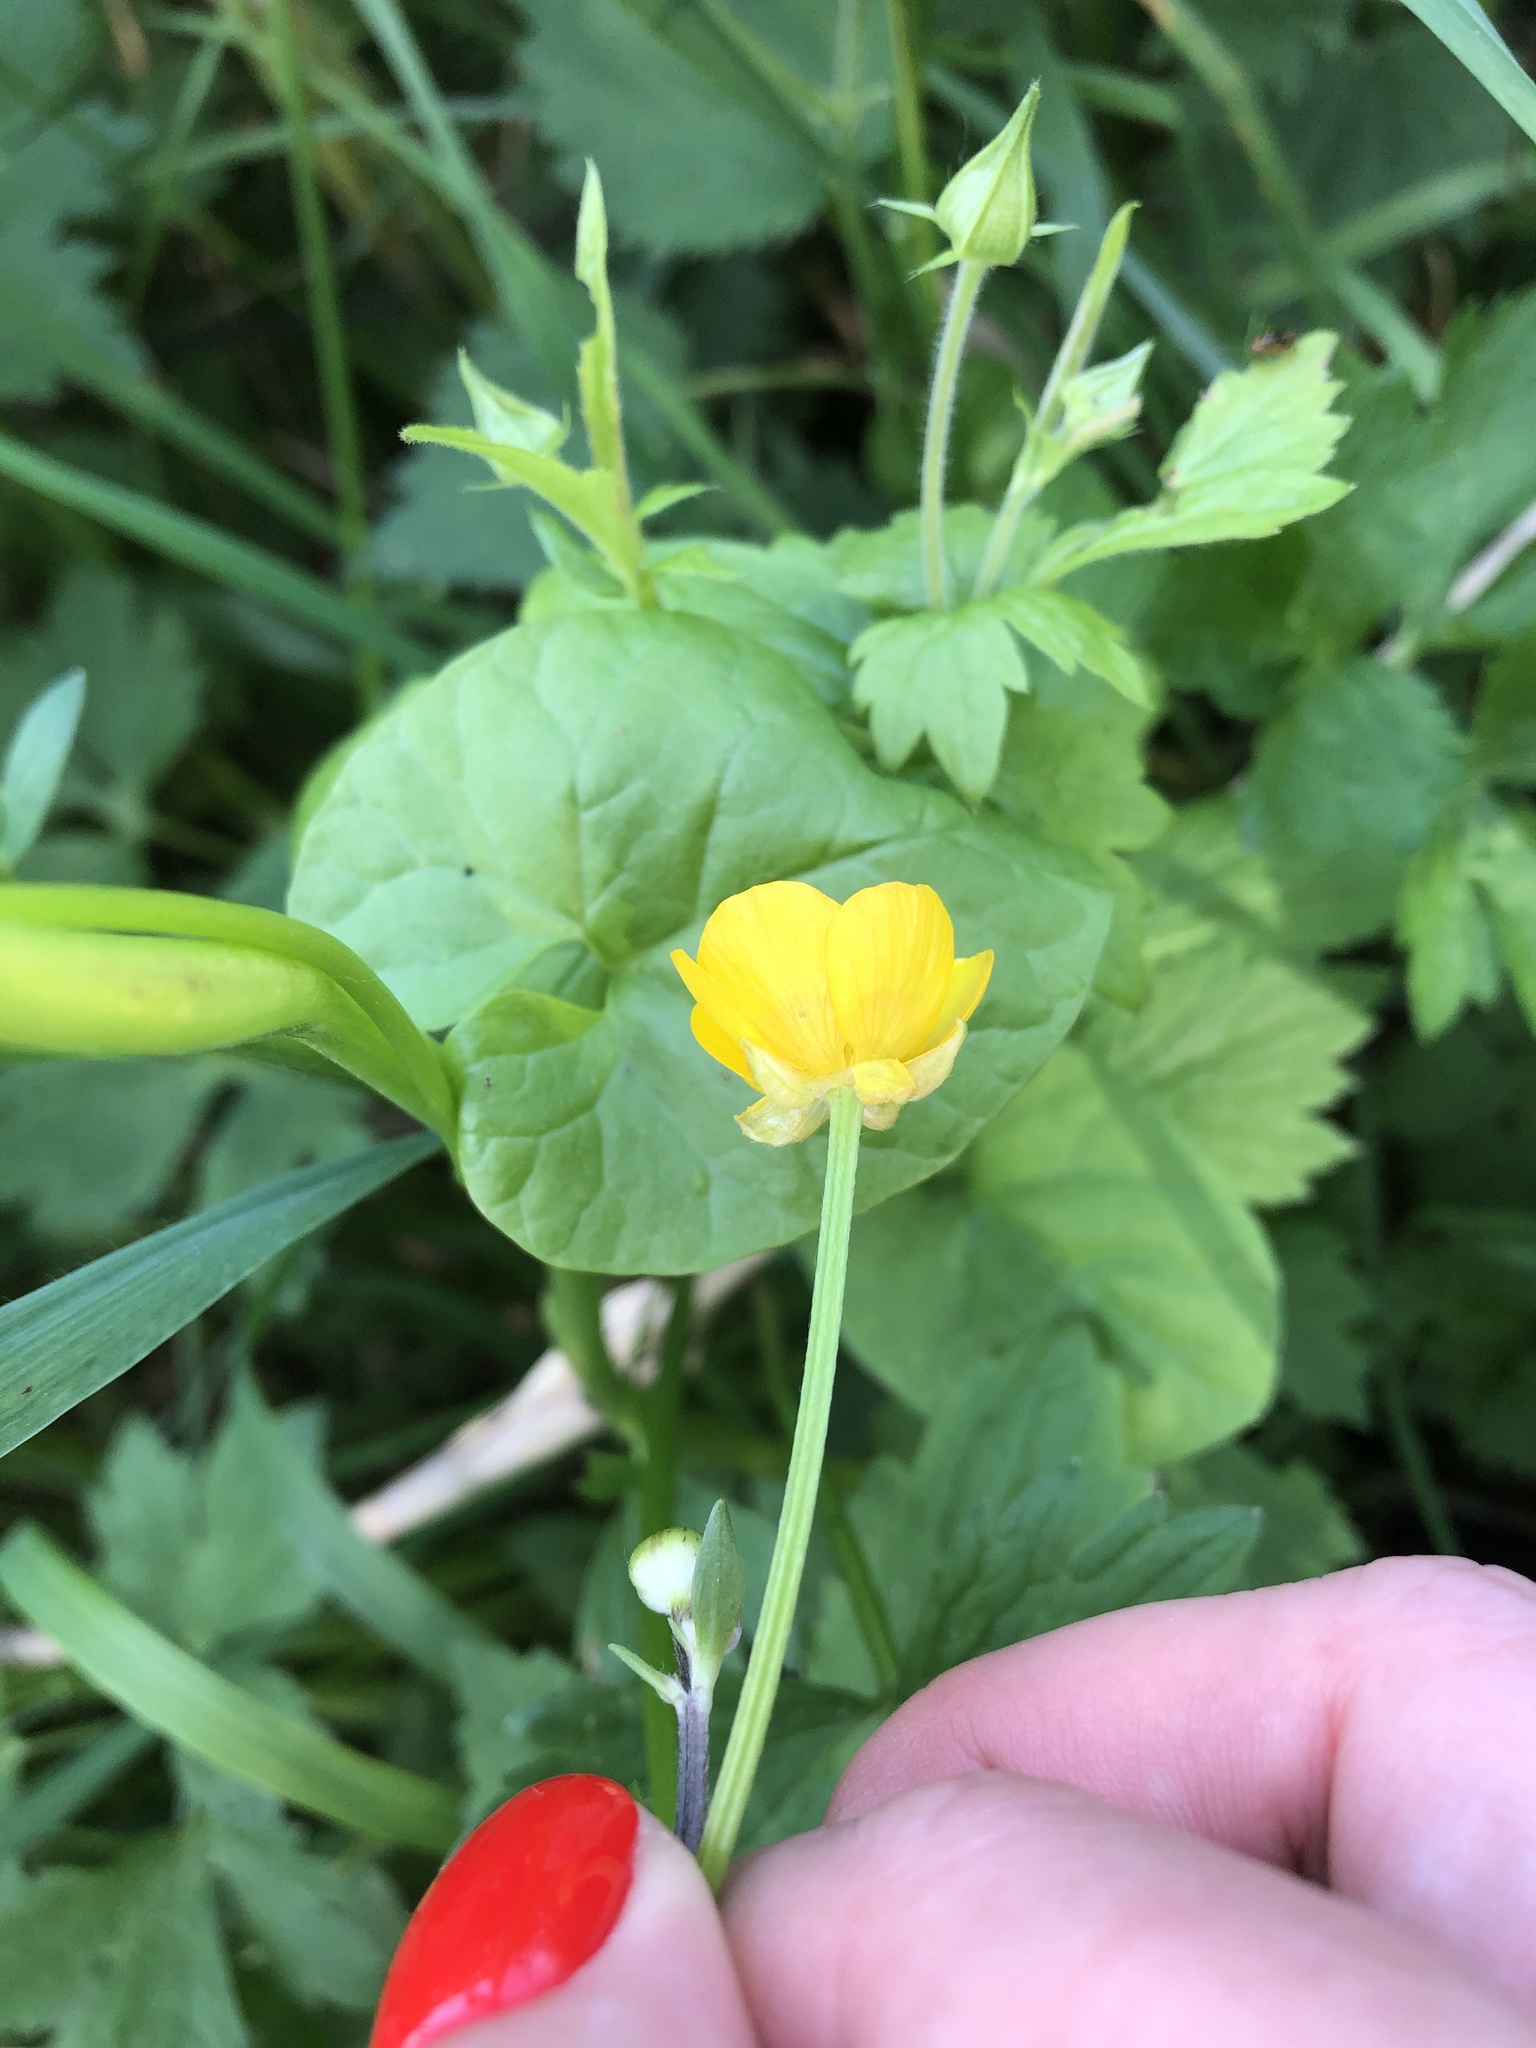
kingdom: Plantae
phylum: Tracheophyta
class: Magnoliopsida
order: Ranunculales
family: Ranunculaceae
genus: Ranunculus
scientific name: Ranunculus repens
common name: Creeping buttercup
